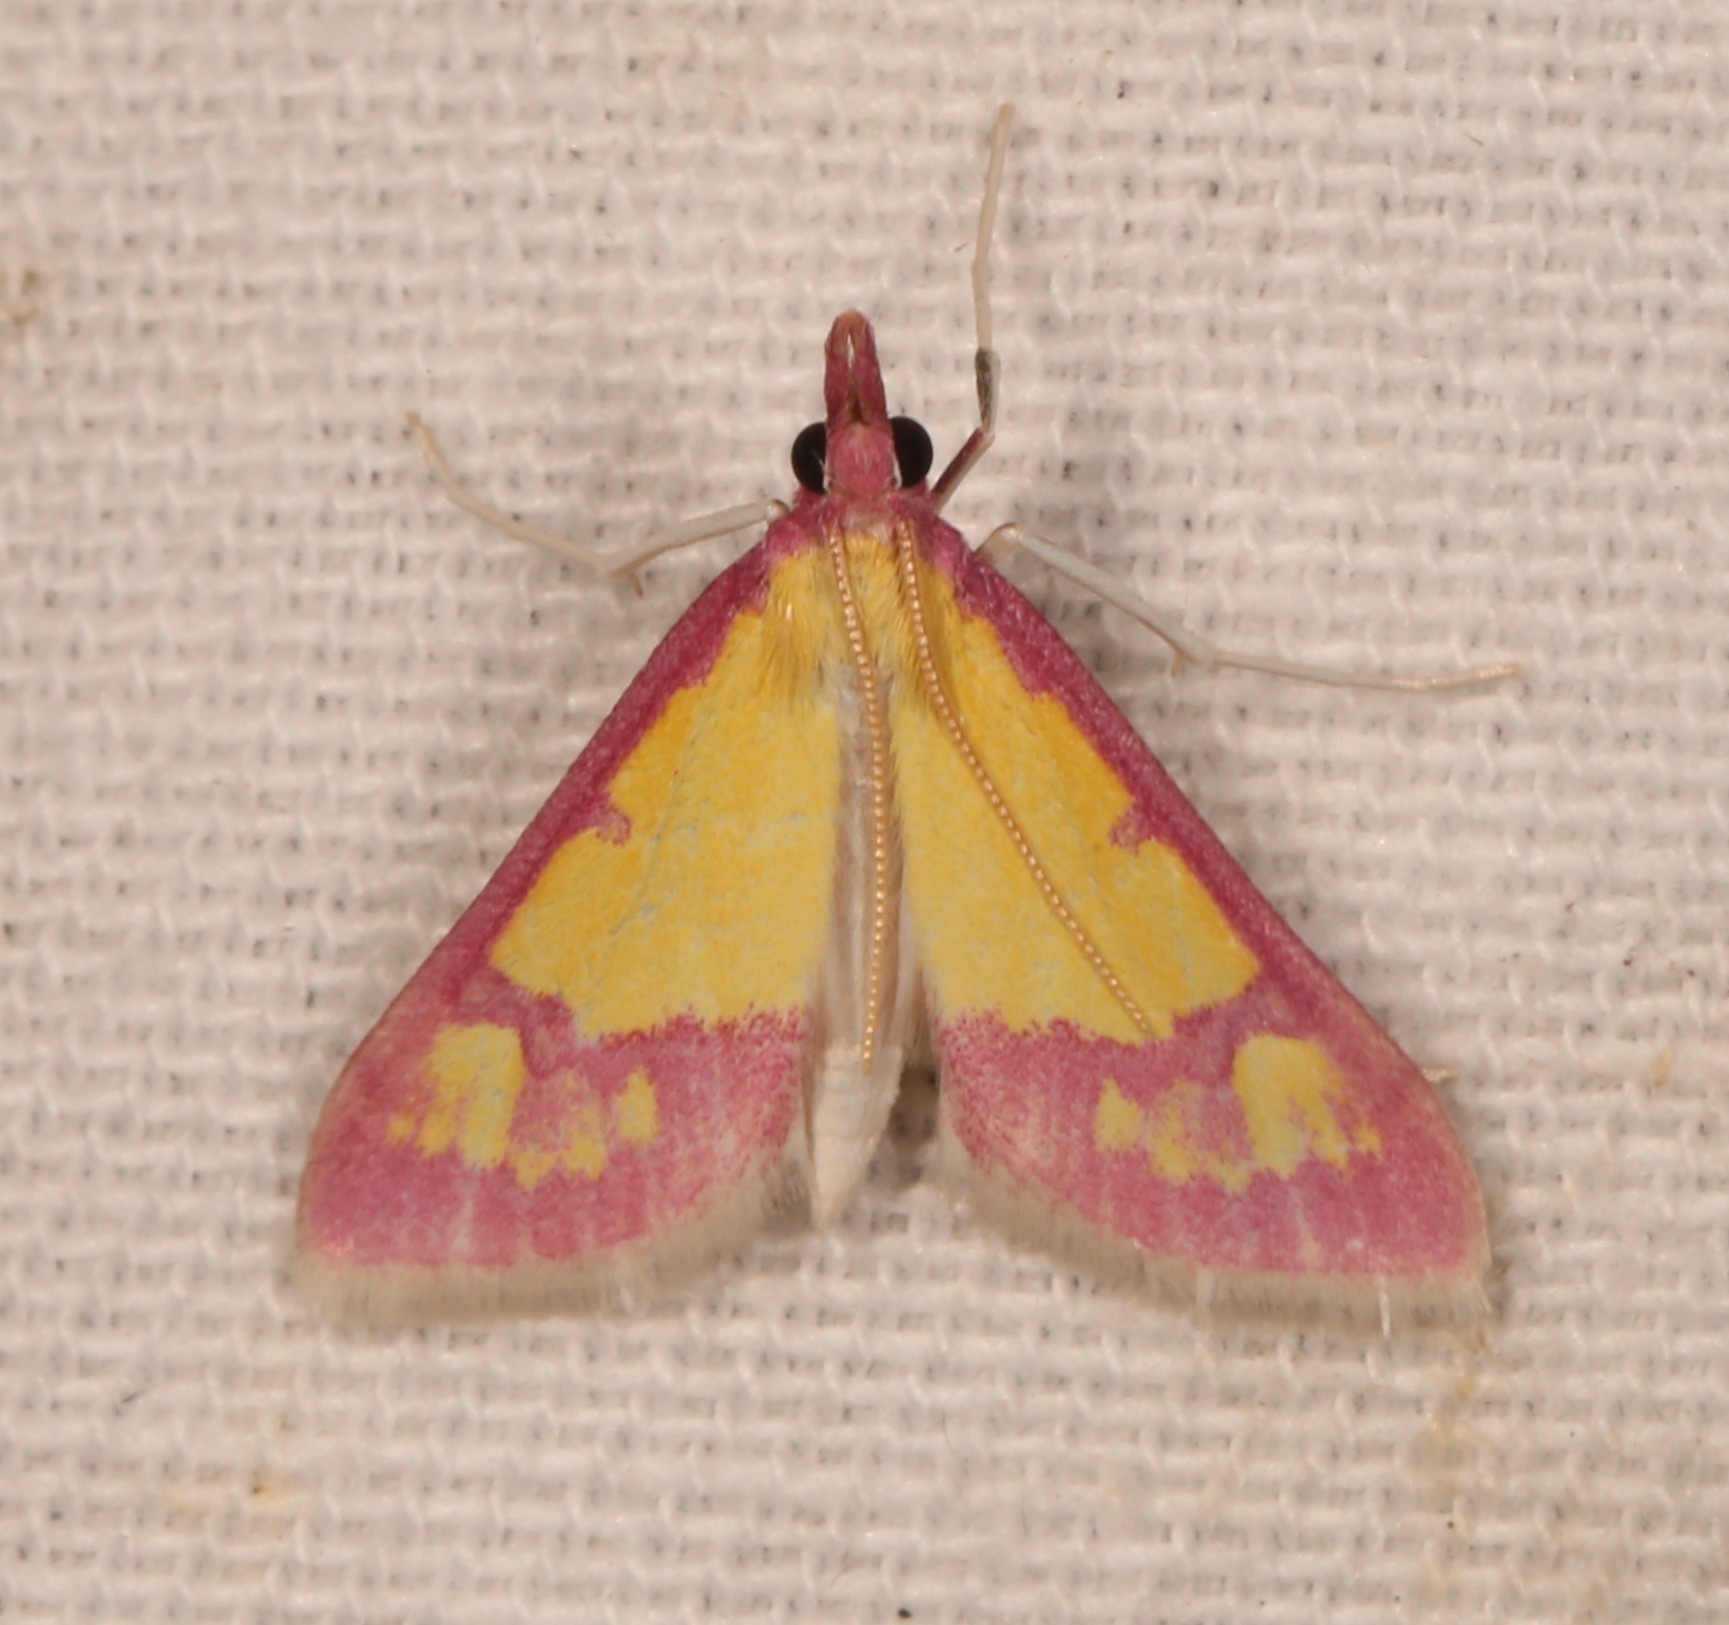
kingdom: Animalia
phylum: Arthropoda
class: Insecta
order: Lepidoptera
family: Crambidae
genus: Choristostigma
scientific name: Choristostigma roseopennalis
